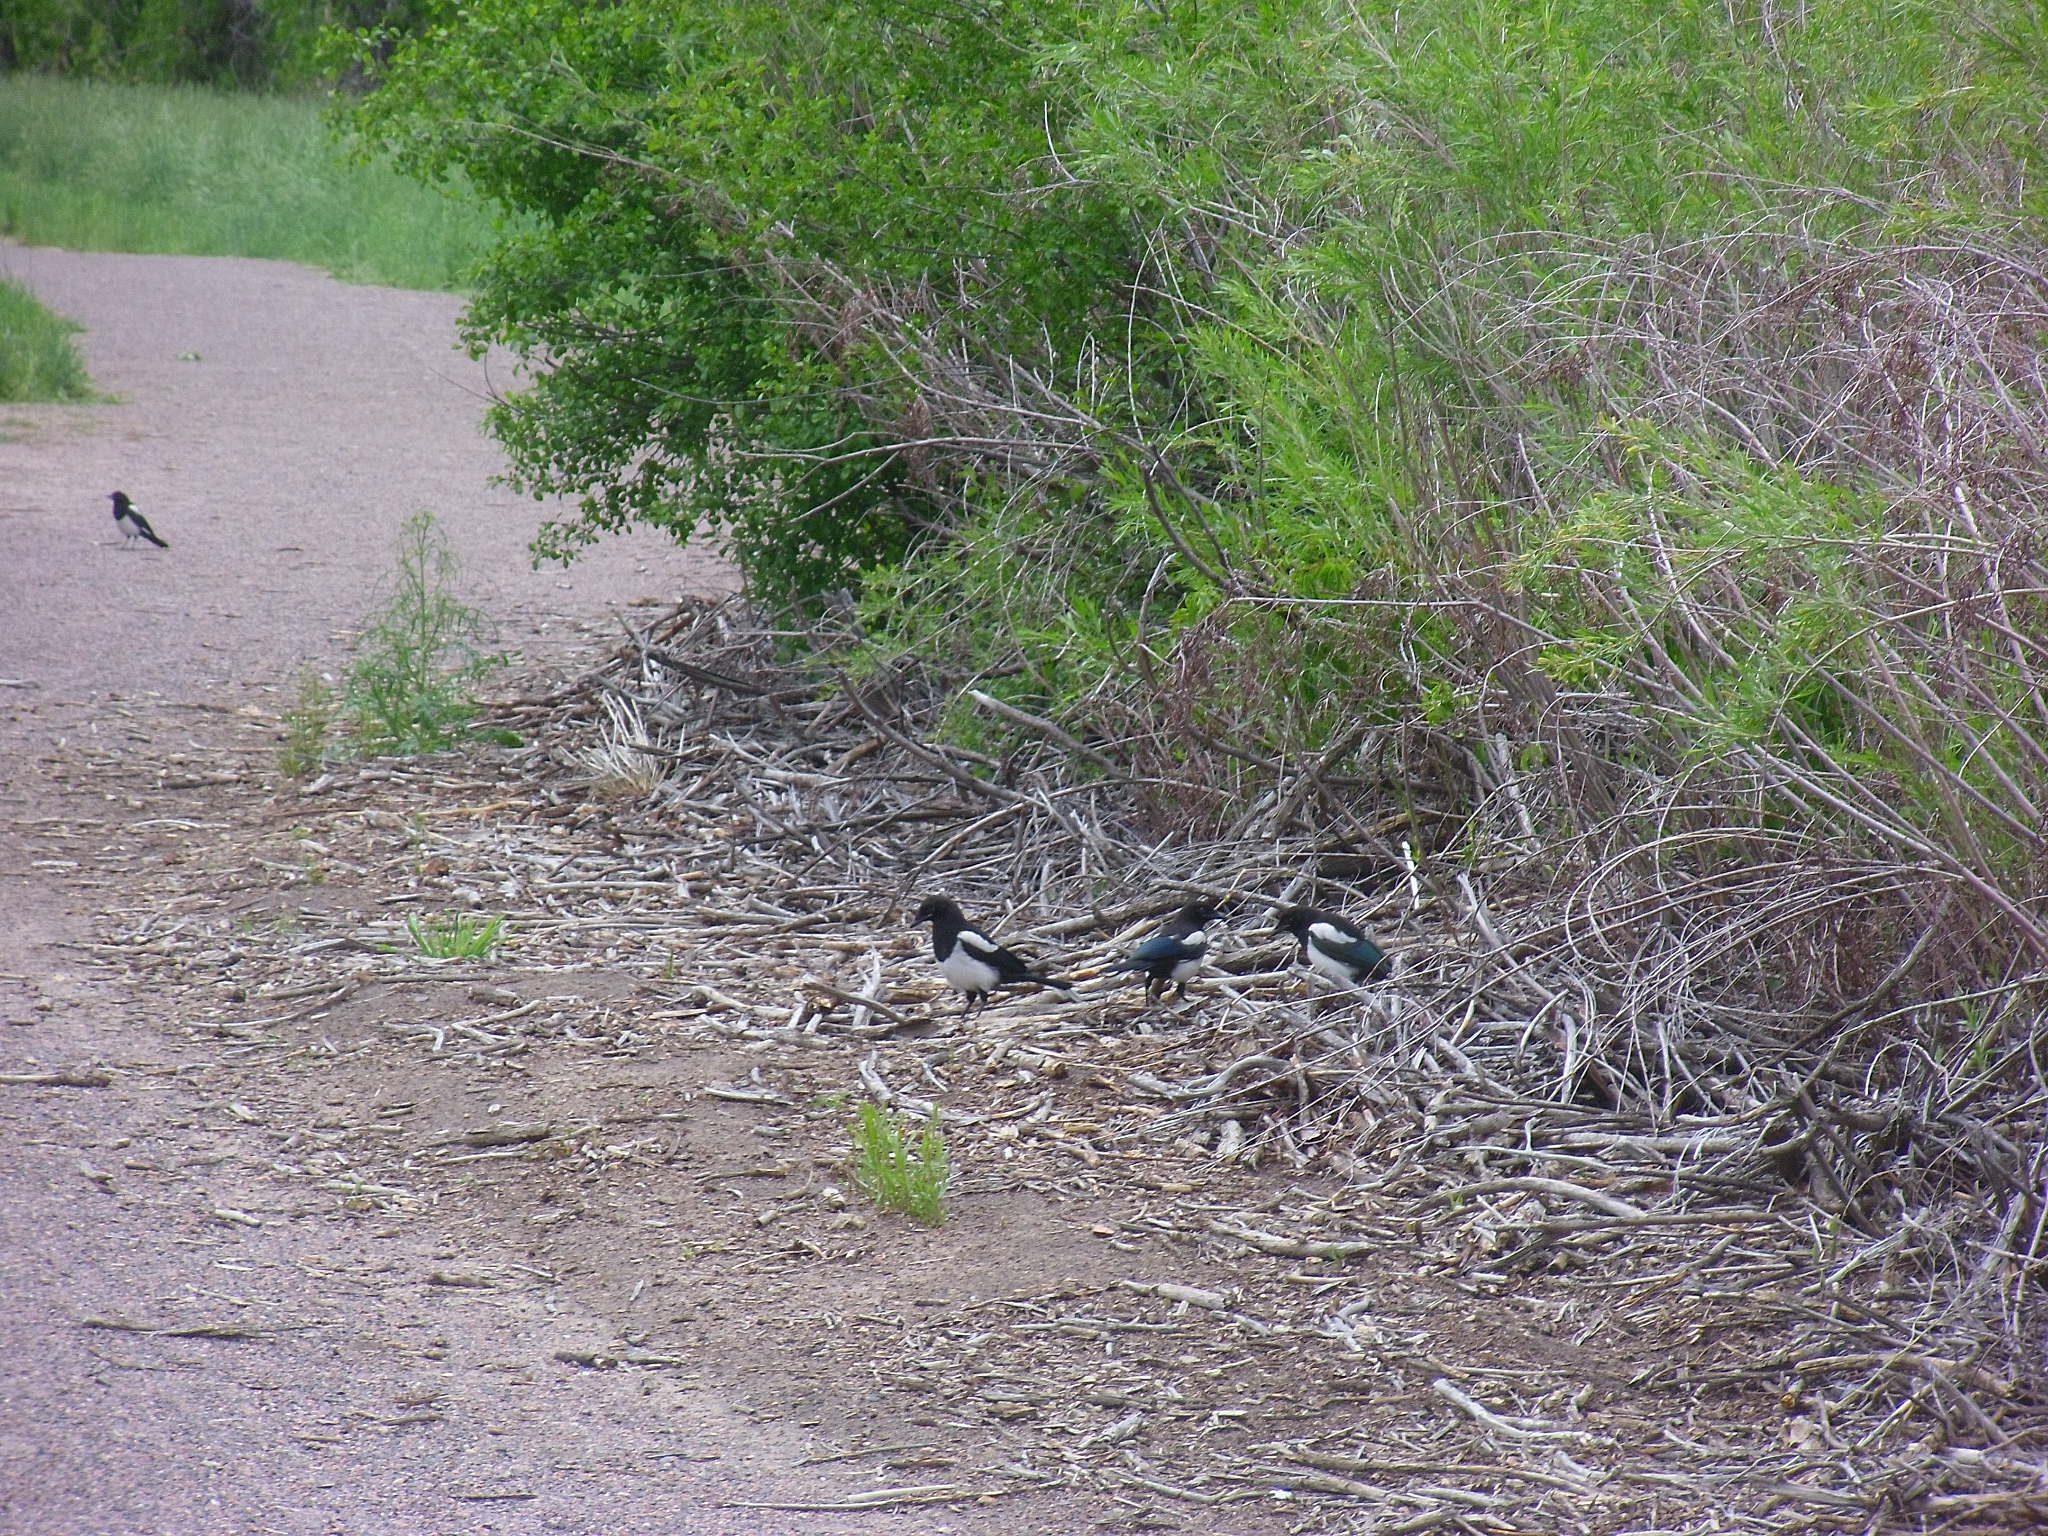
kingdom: Animalia
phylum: Chordata
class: Aves
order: Passeriformes
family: Corvidae
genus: Pica
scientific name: Pica hudsonia
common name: Black-billed magpie
